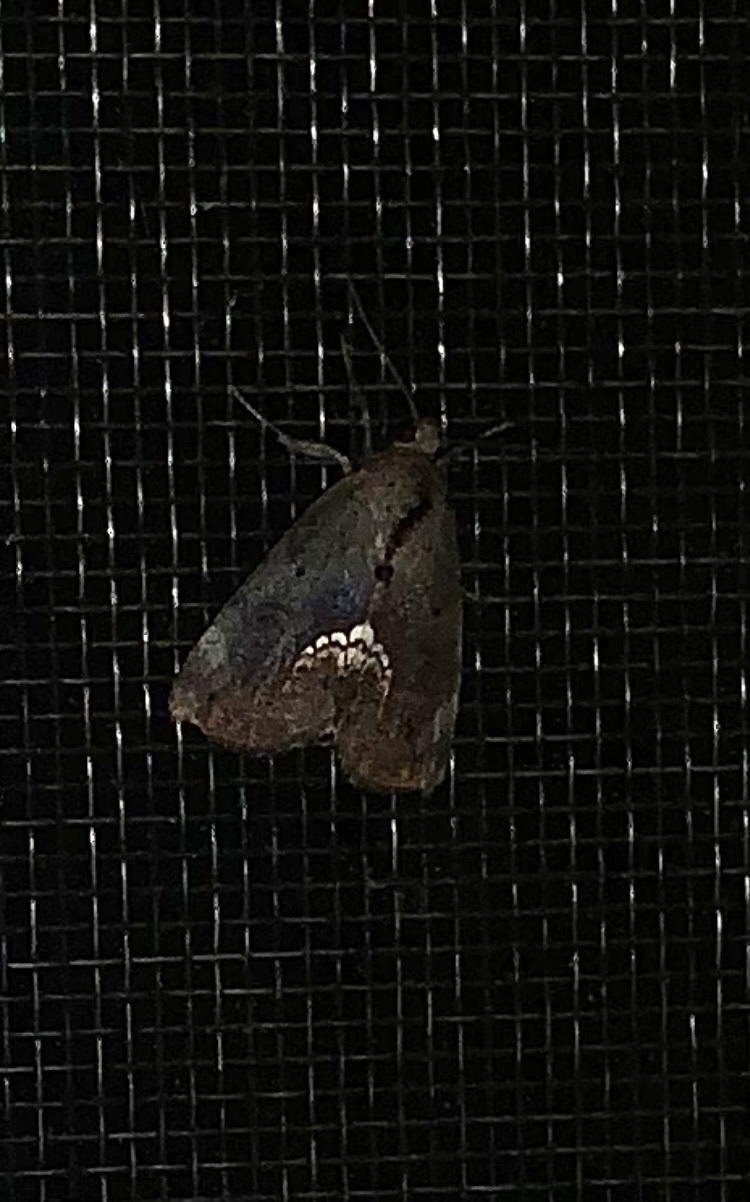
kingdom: Animalia
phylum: Arthropoda
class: Insecta
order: Lepidoptera
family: Erebidae
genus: Hypsoropha
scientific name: Hypsoropha hormos
